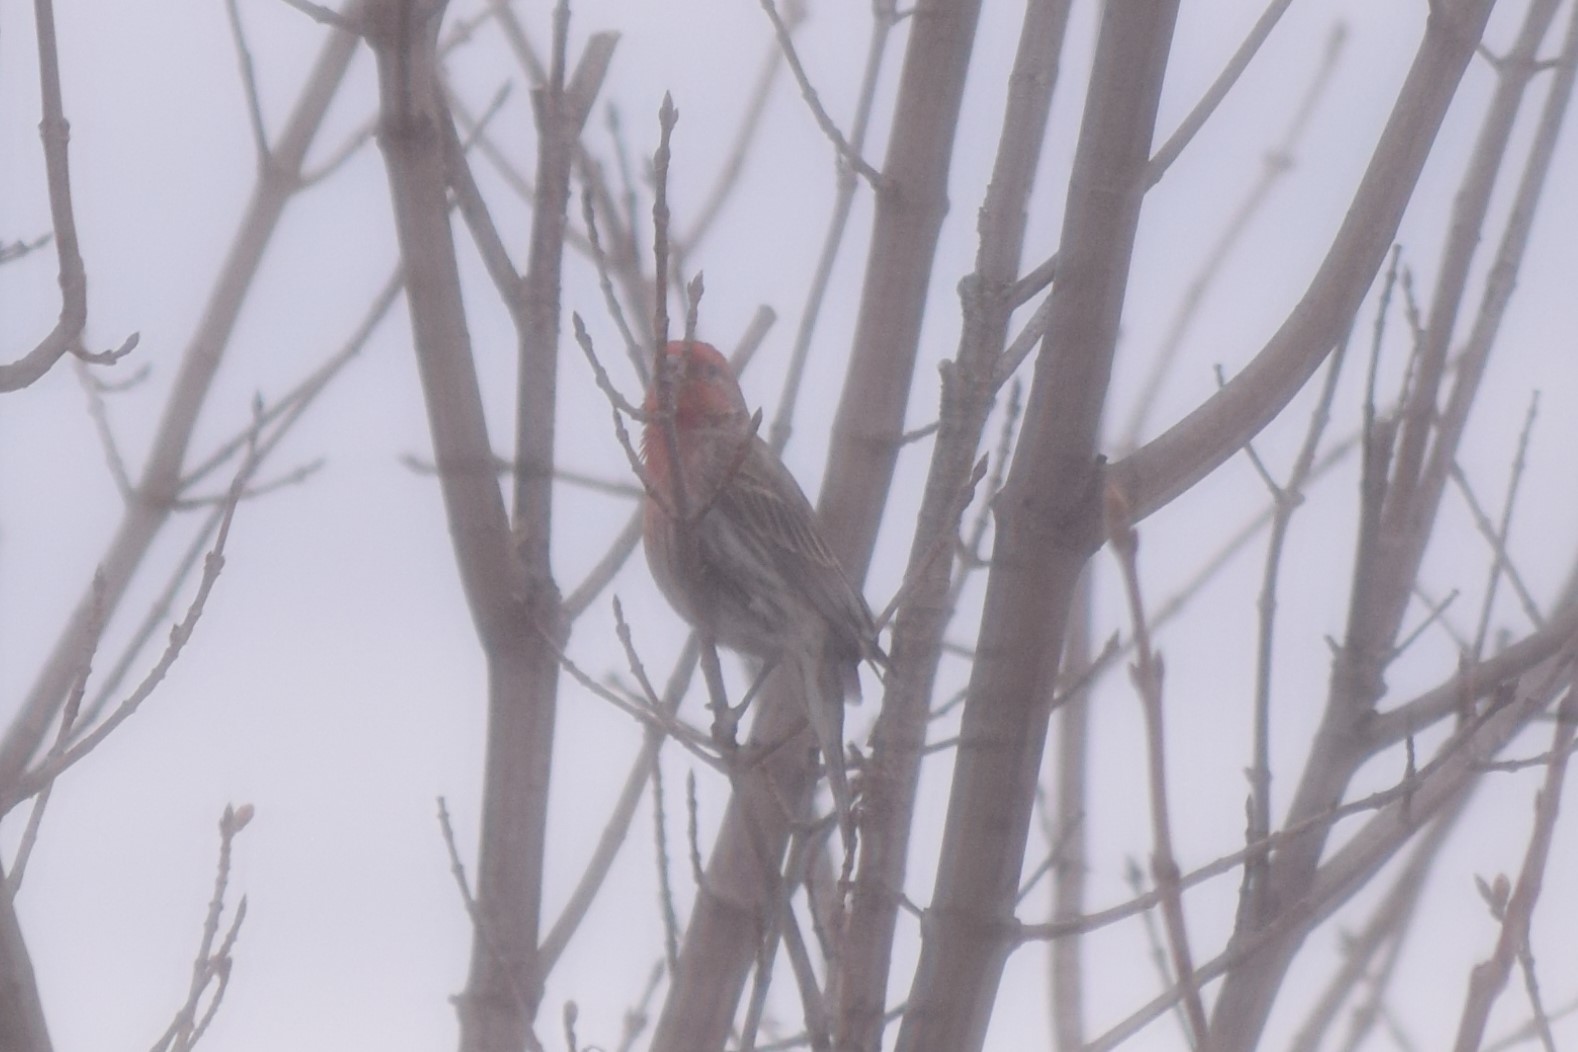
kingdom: Animalia
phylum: Chordata
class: Aves
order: Passeriformes
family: Fringillidae
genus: Haemorhous
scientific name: Haemorhous mexicanus
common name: House finch
